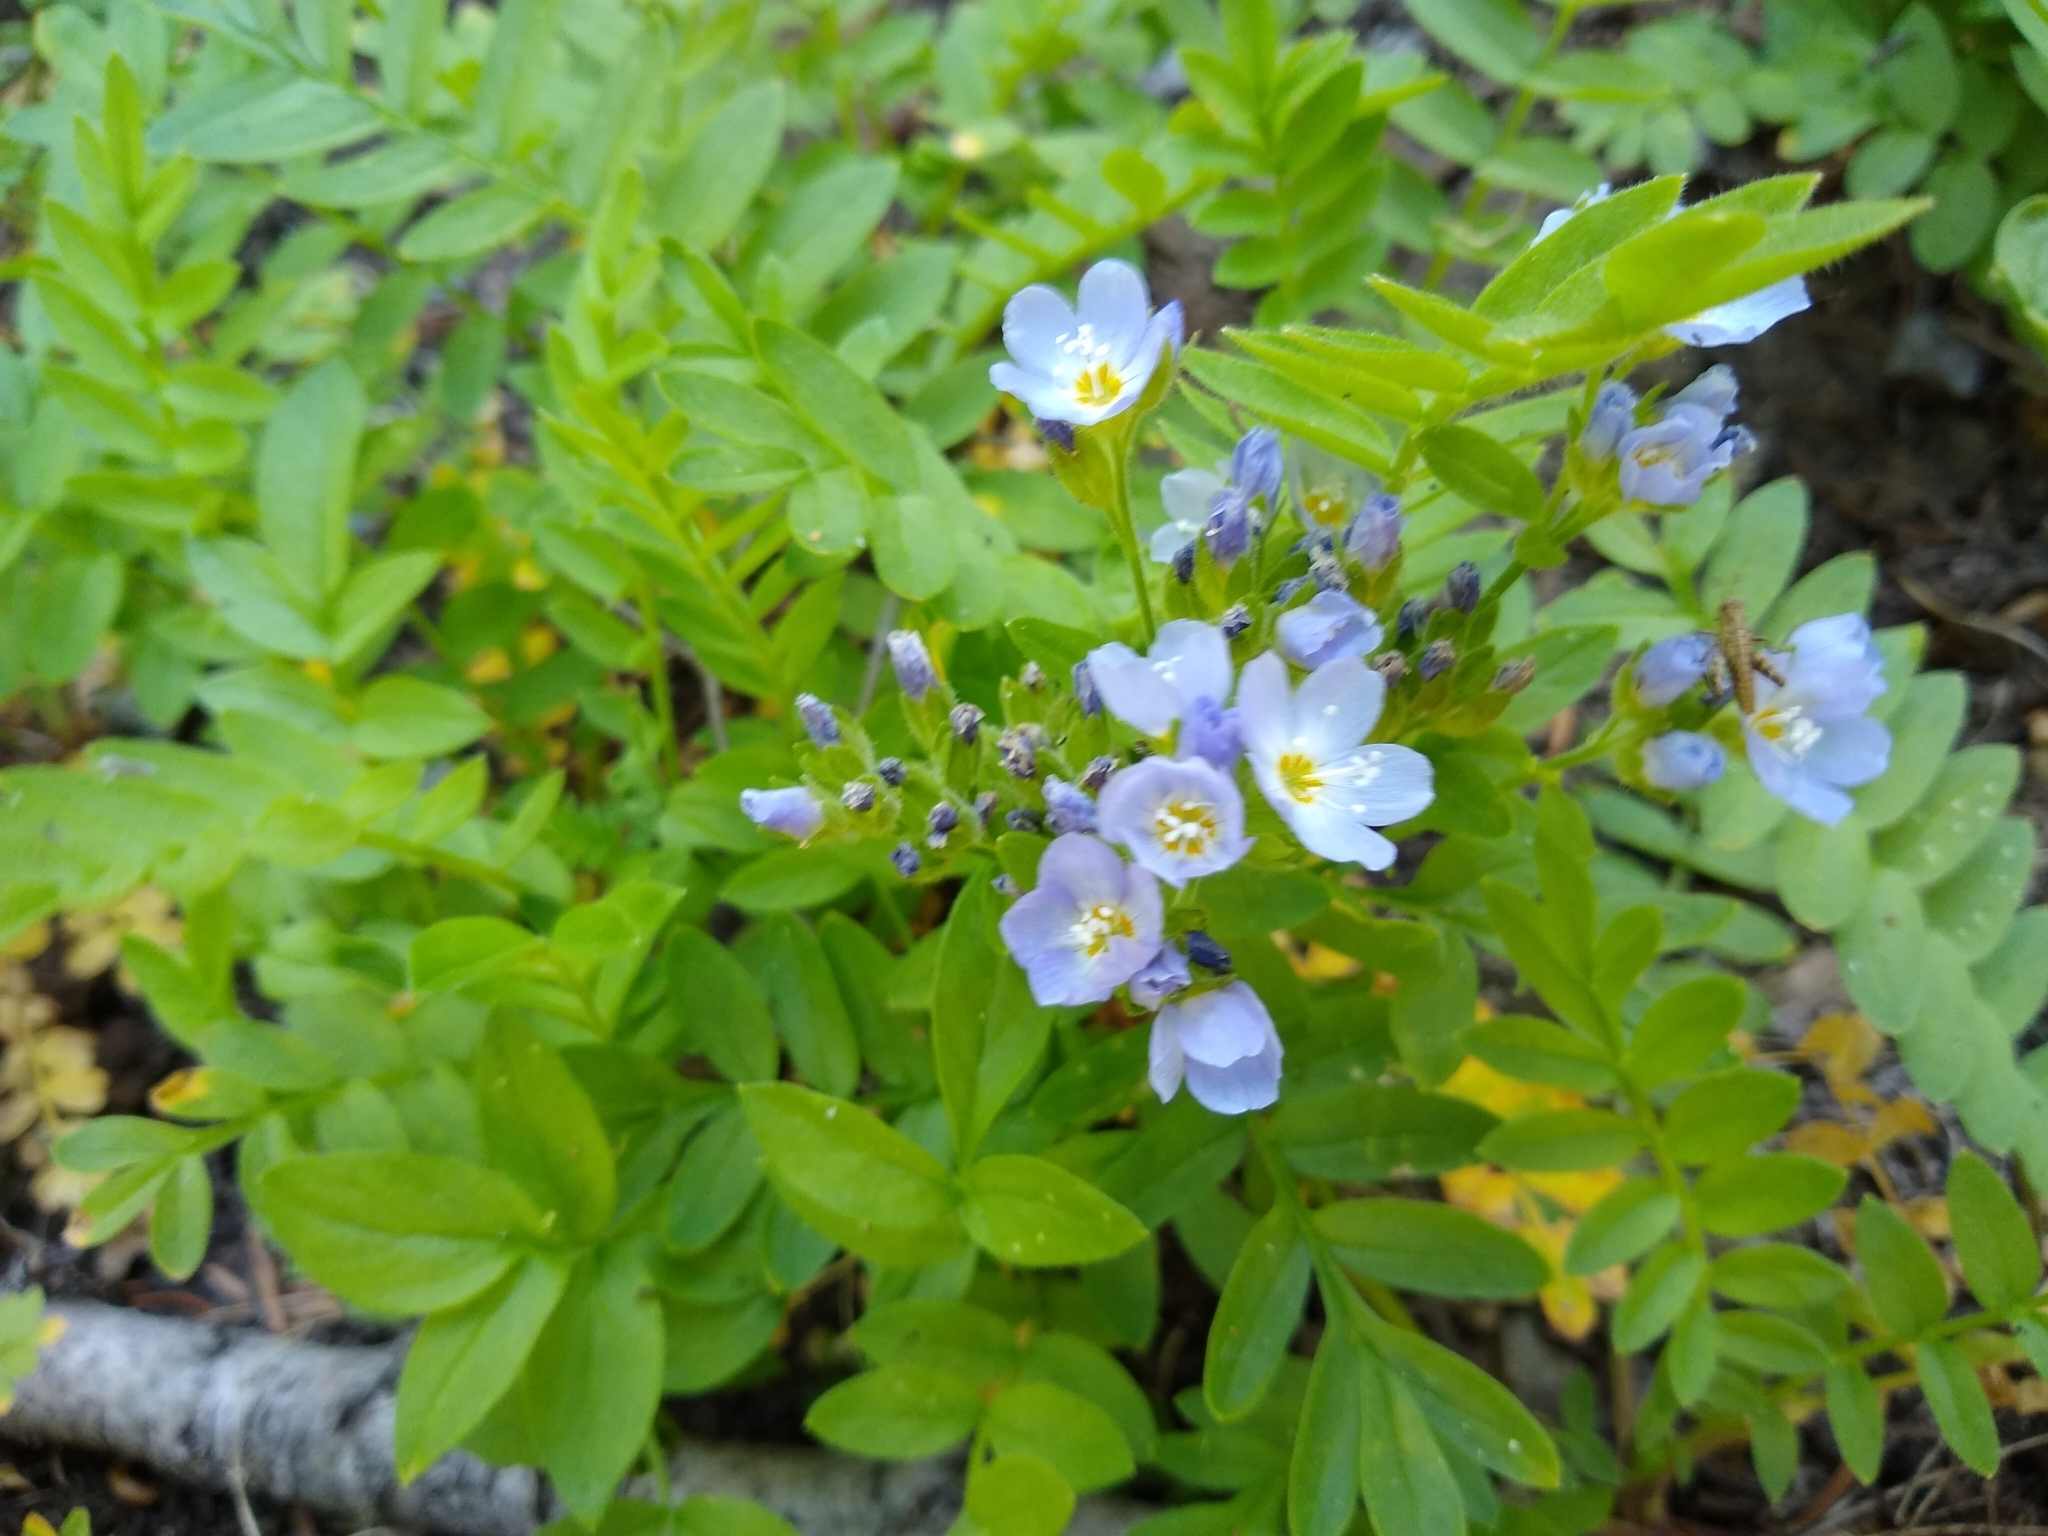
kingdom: Plantae
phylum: Tracheophyta
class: Magnoliopsida
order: Ericales
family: Polemoniaceae
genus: Polemonium
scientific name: Polemonium californicum
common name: California jacob's ladder
